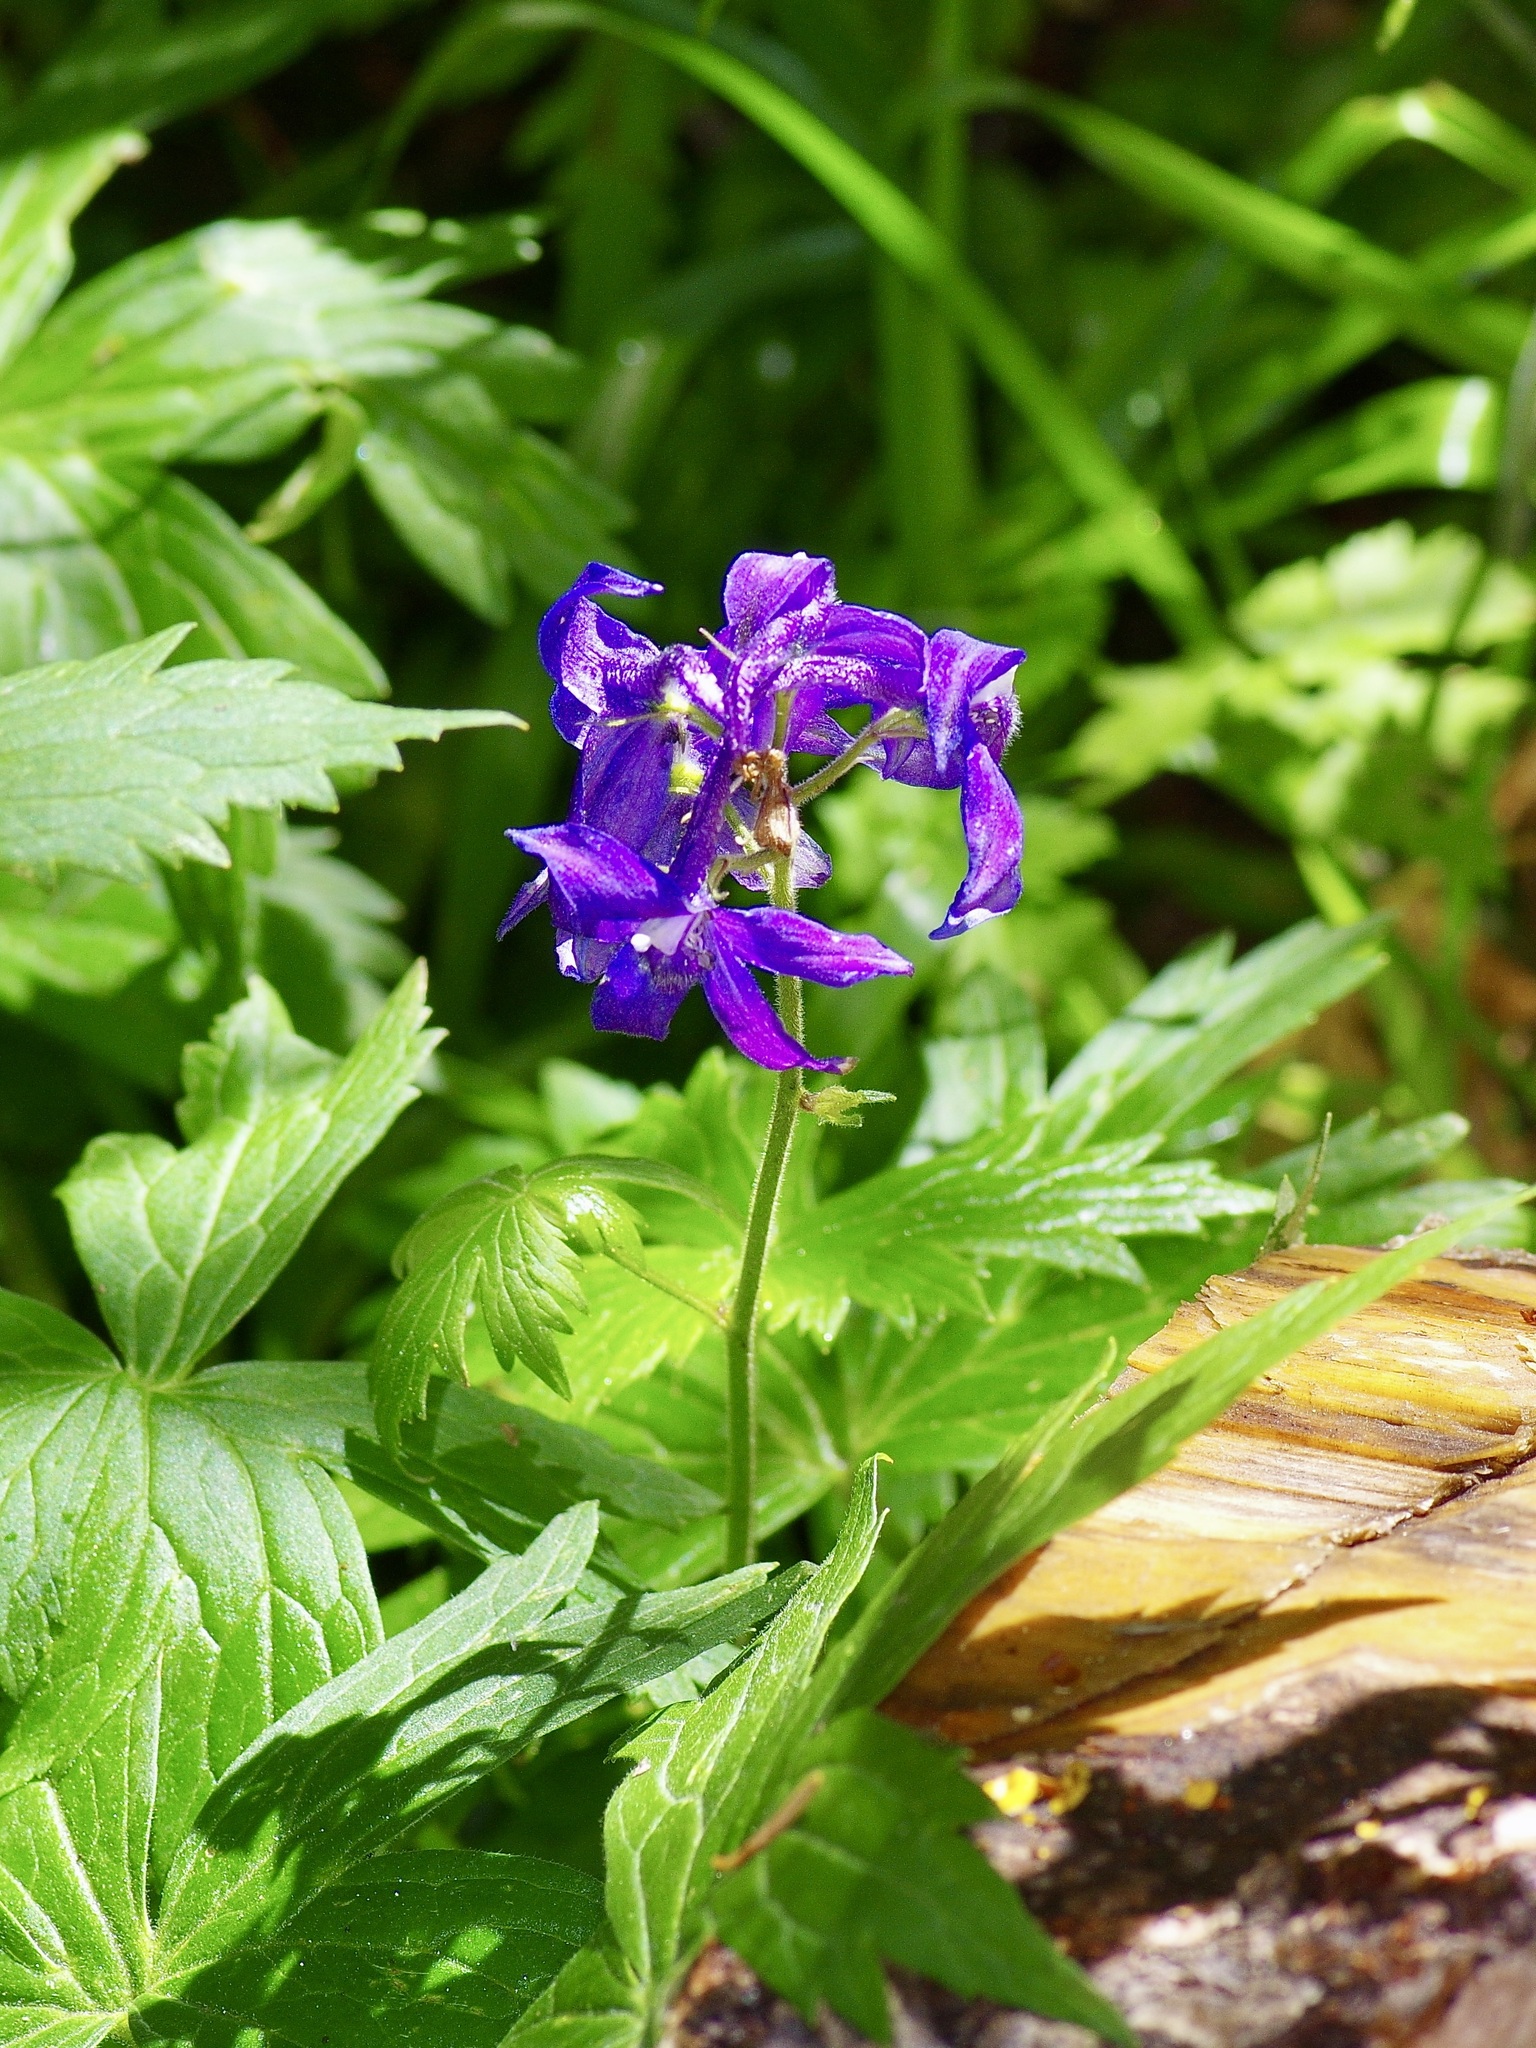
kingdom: Plantae
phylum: Tracheophyta
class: Magnoliopsida
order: Ranunculales
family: Ranunculaceae
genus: Delphinium
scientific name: Delphinium barbeyi
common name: Subalpine larkspur
